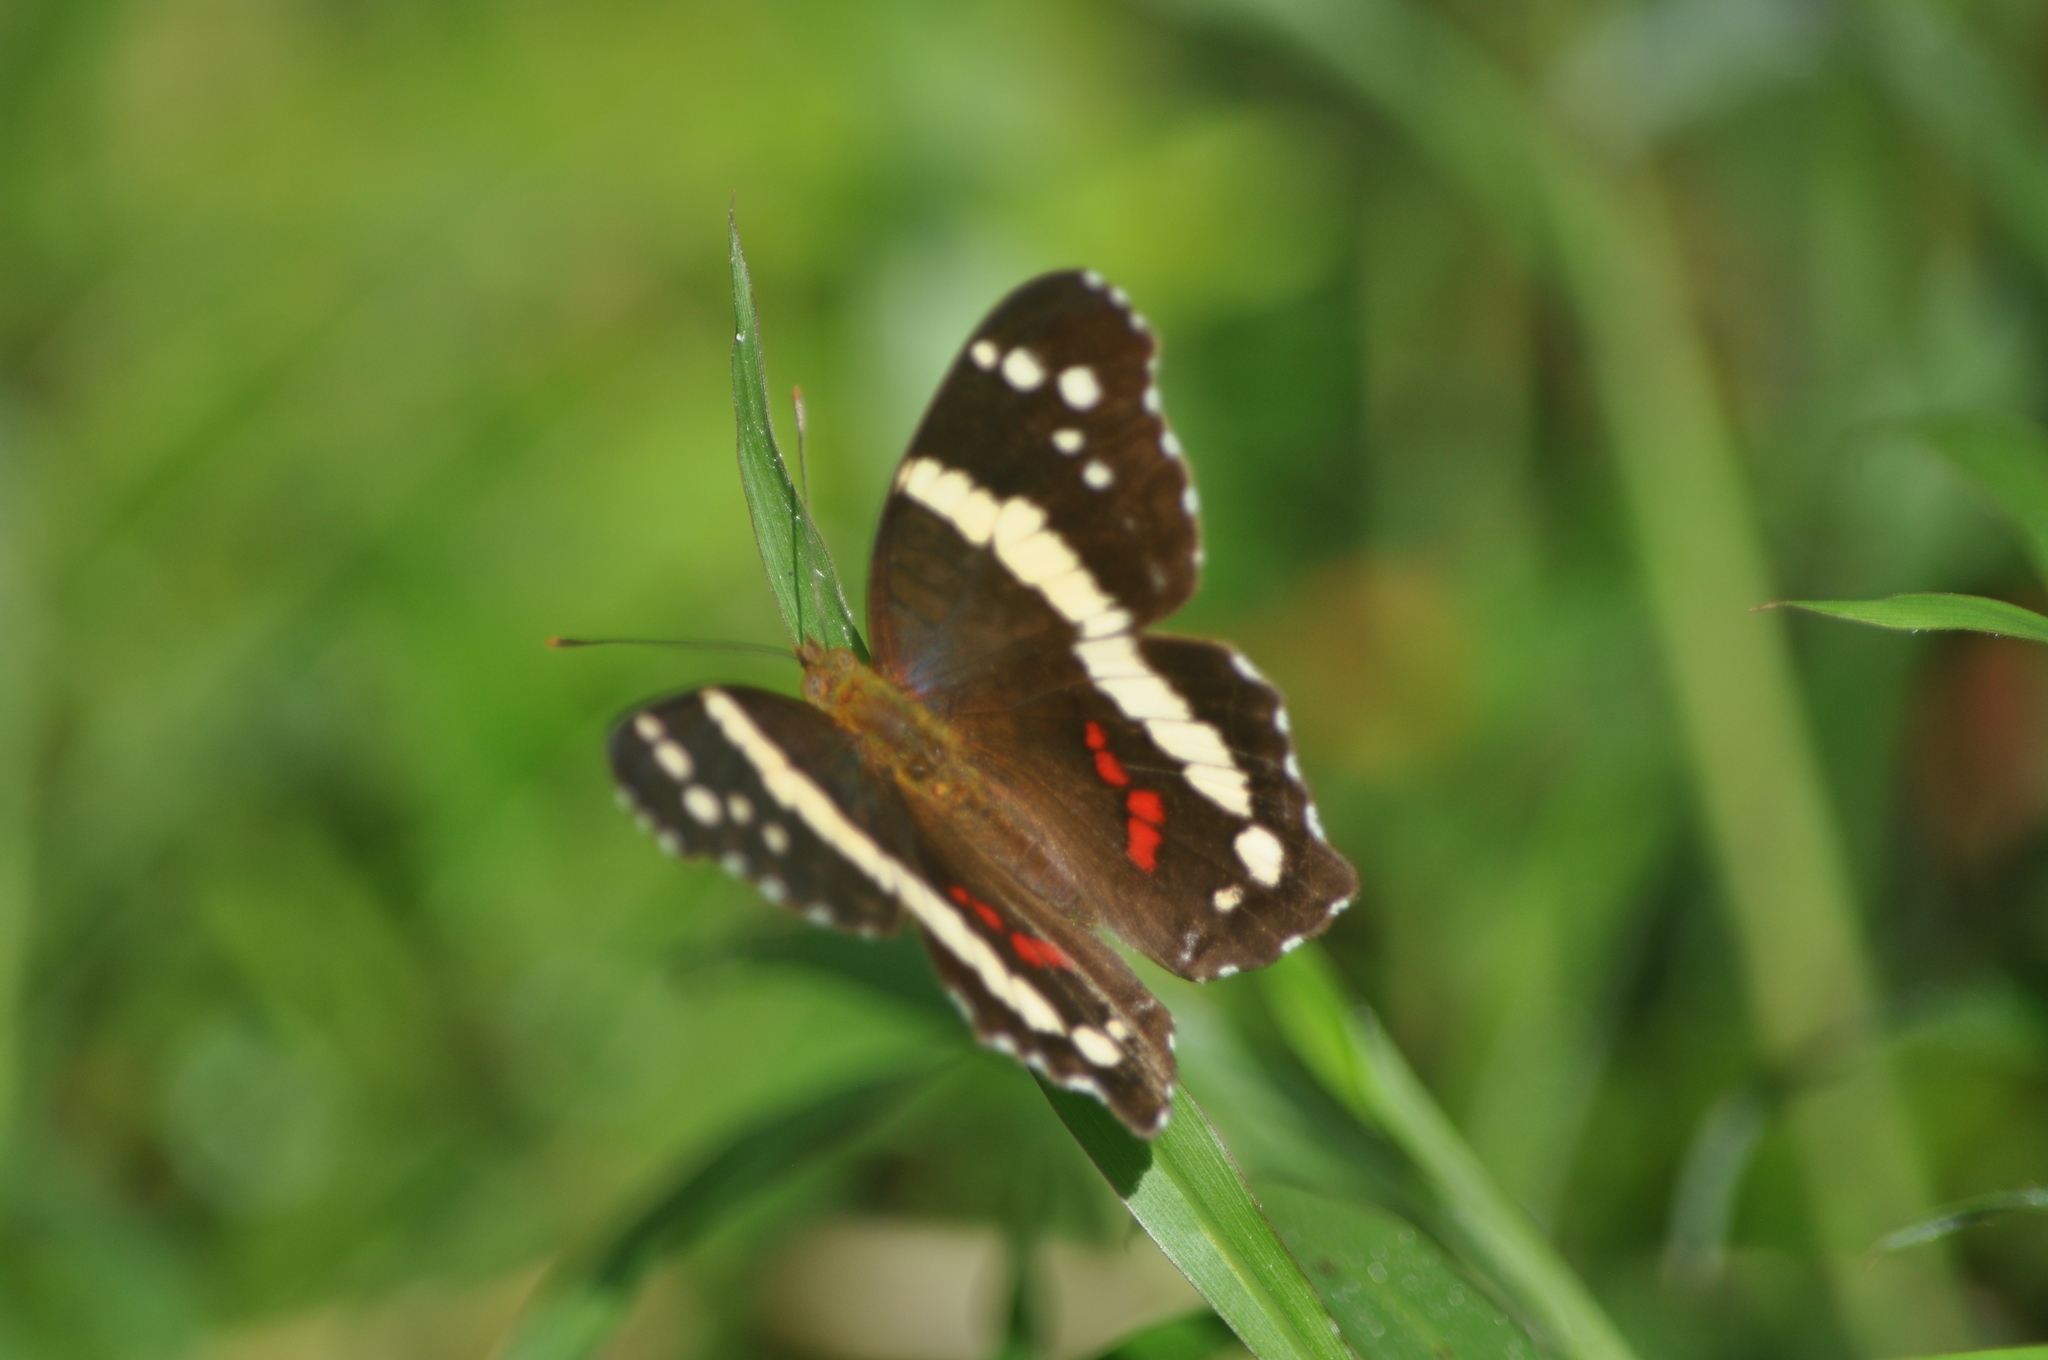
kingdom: Animalia
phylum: Arthropoda
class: Insecta
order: Lepidoptera
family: Nymphalidae
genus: Anartia
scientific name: Anartia fatima
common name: Banded peacock
